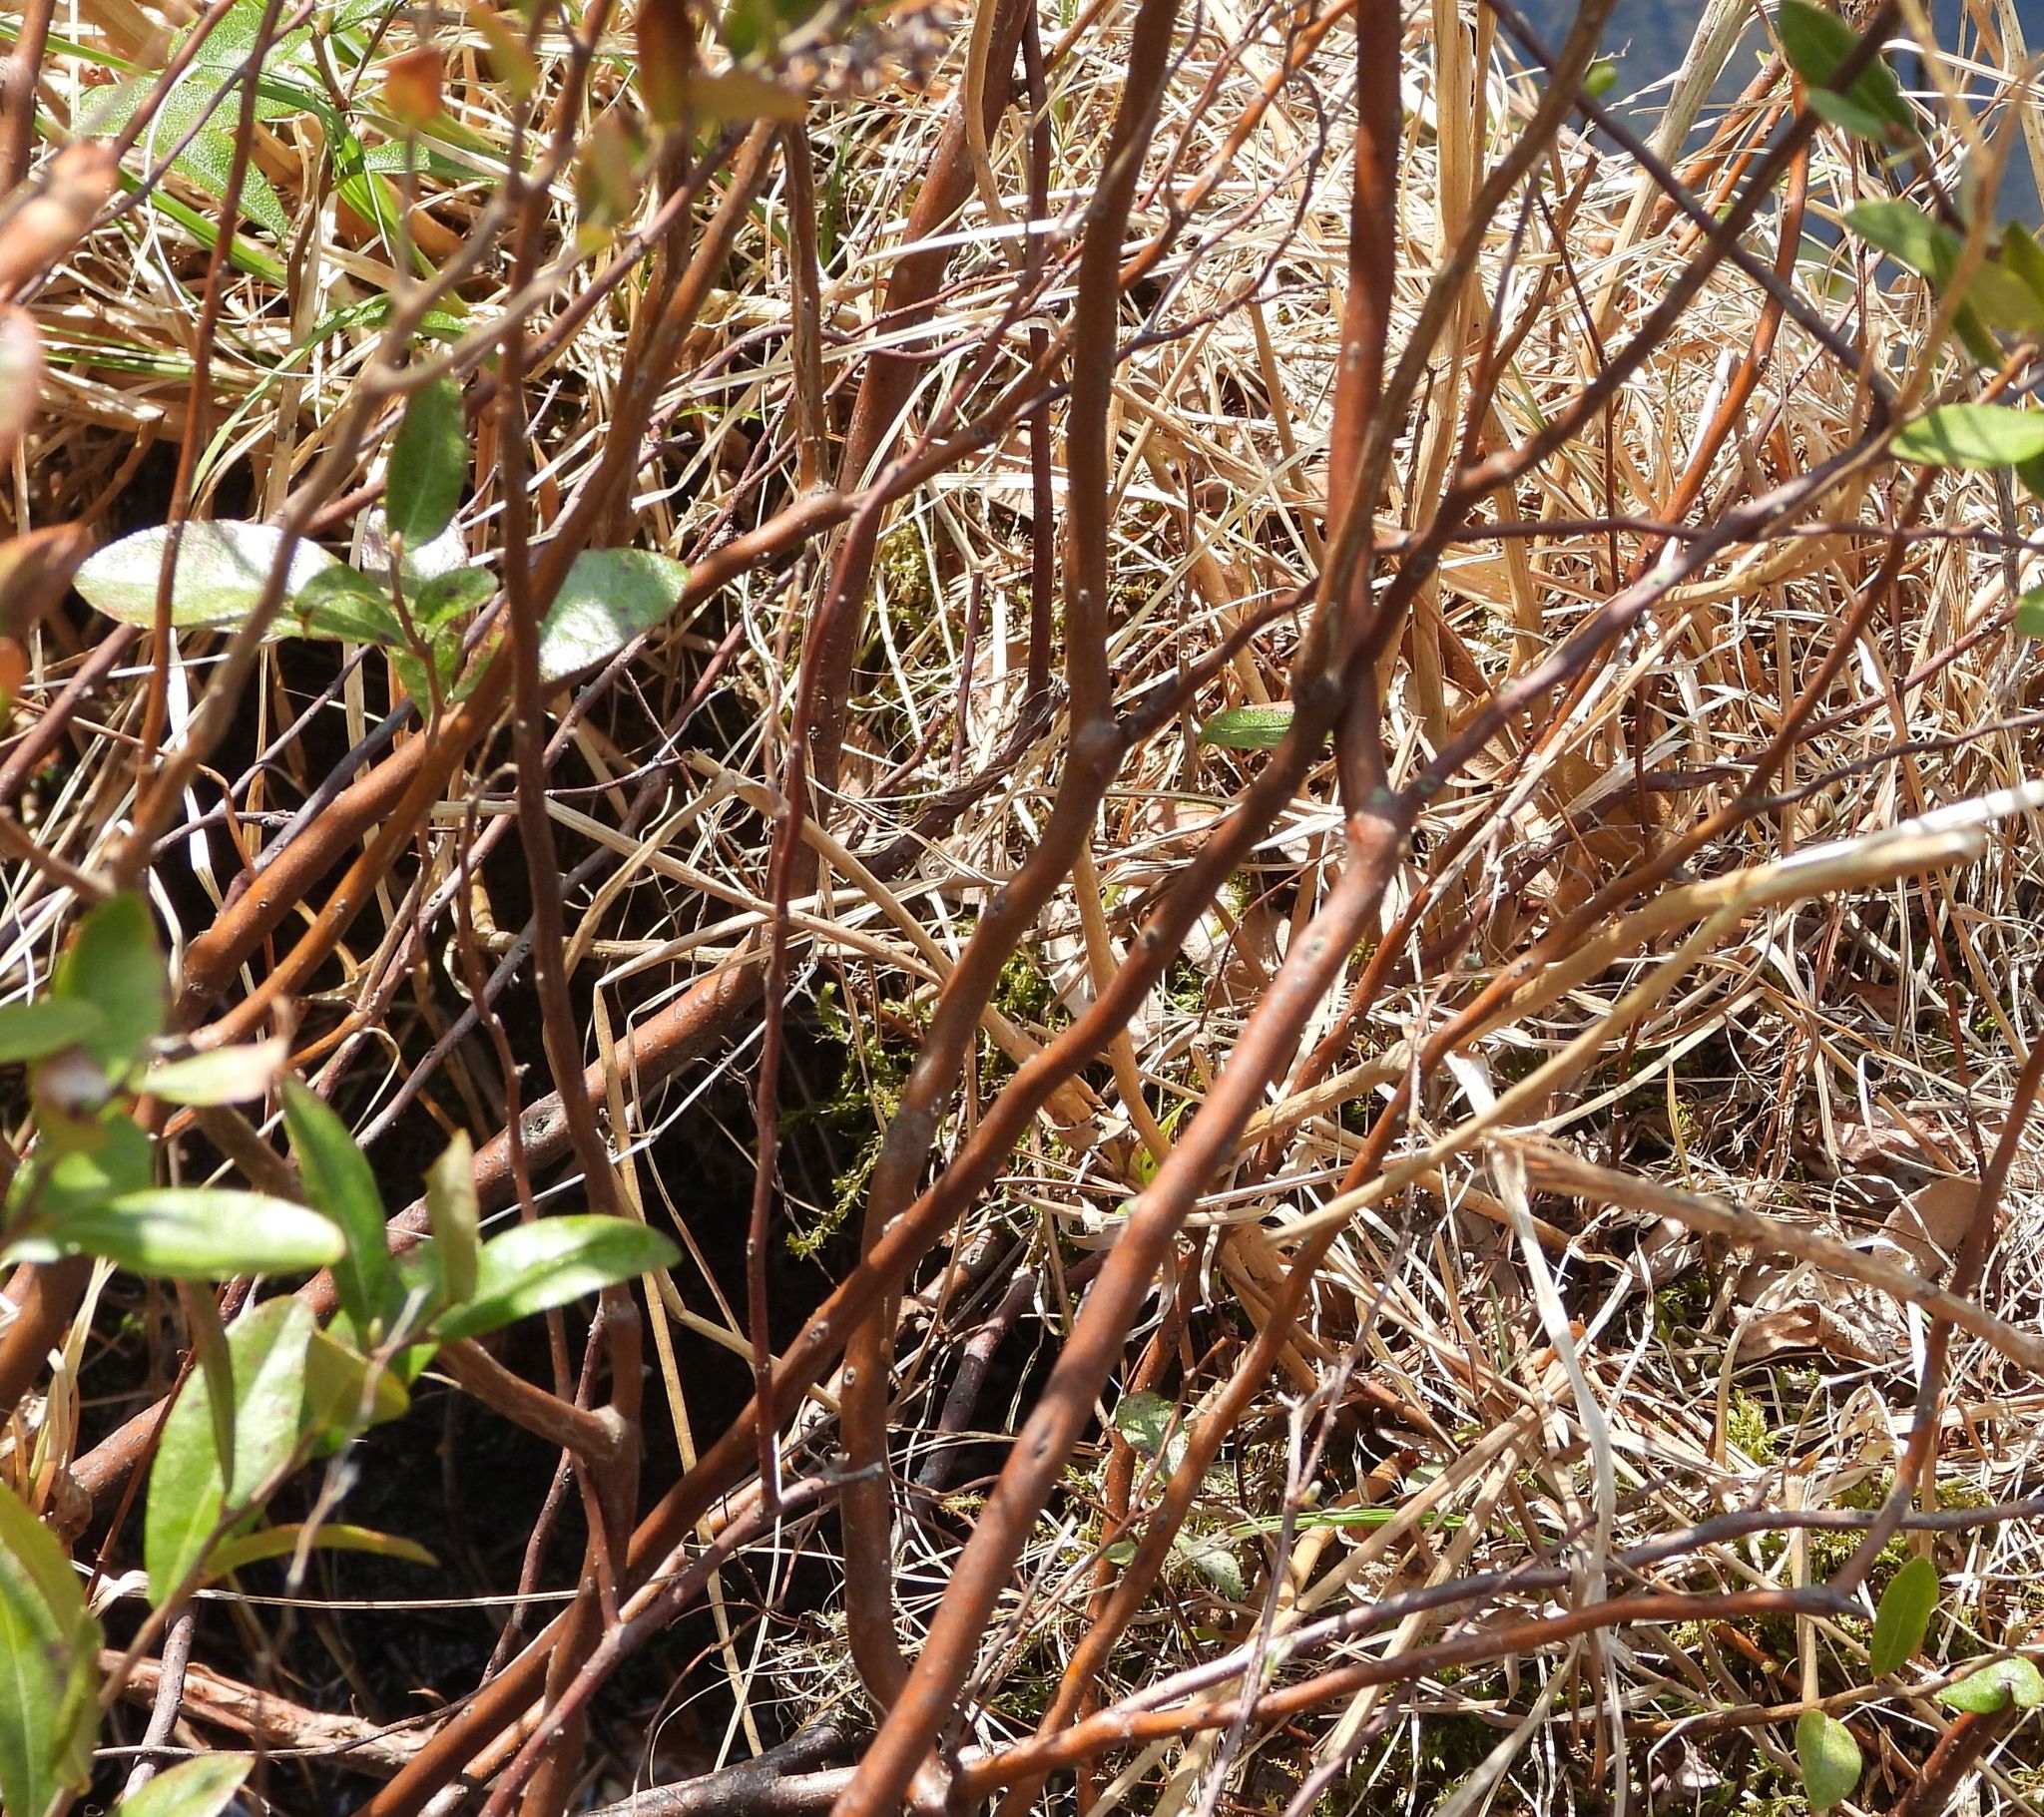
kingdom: Plantae
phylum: Tracheophyta
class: Magnoliopsida
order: Ericales
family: Ericaceae
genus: Chamaedaphne
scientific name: Chamaedaphne calyculata
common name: Leatherleaf
